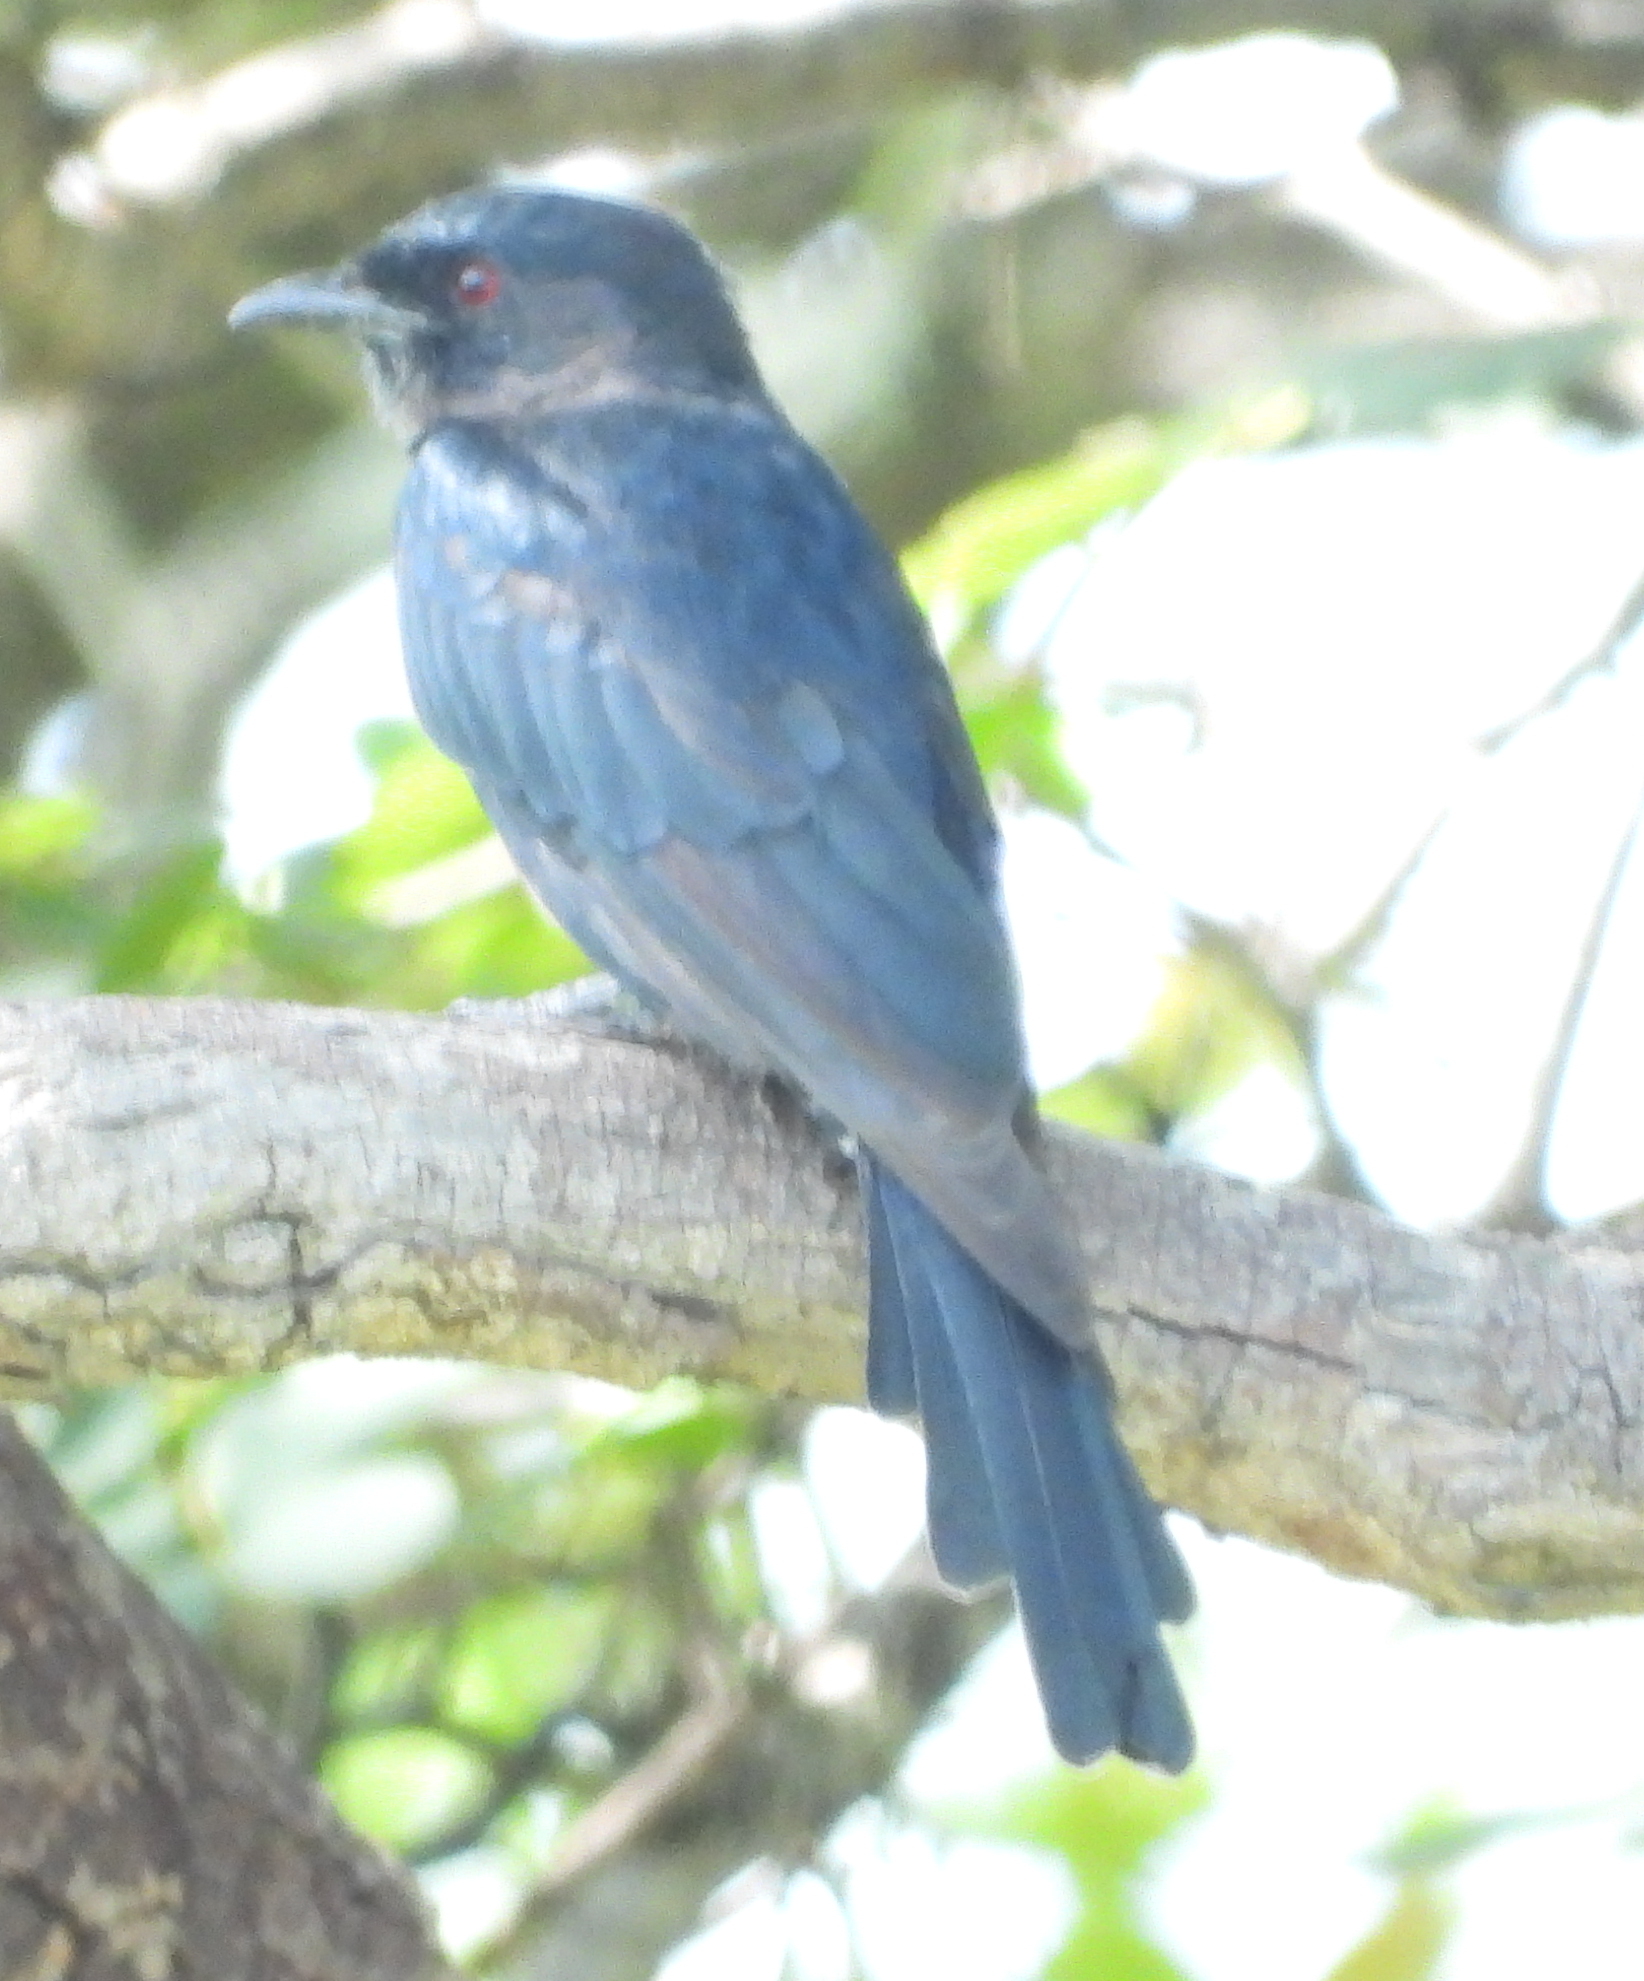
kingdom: Animalia
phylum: Chordata
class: Aves
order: Passeriformes
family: Dicruridae
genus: Dicrurus
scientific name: Dicrurus adsimilis
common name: Fork-tailed drongo
